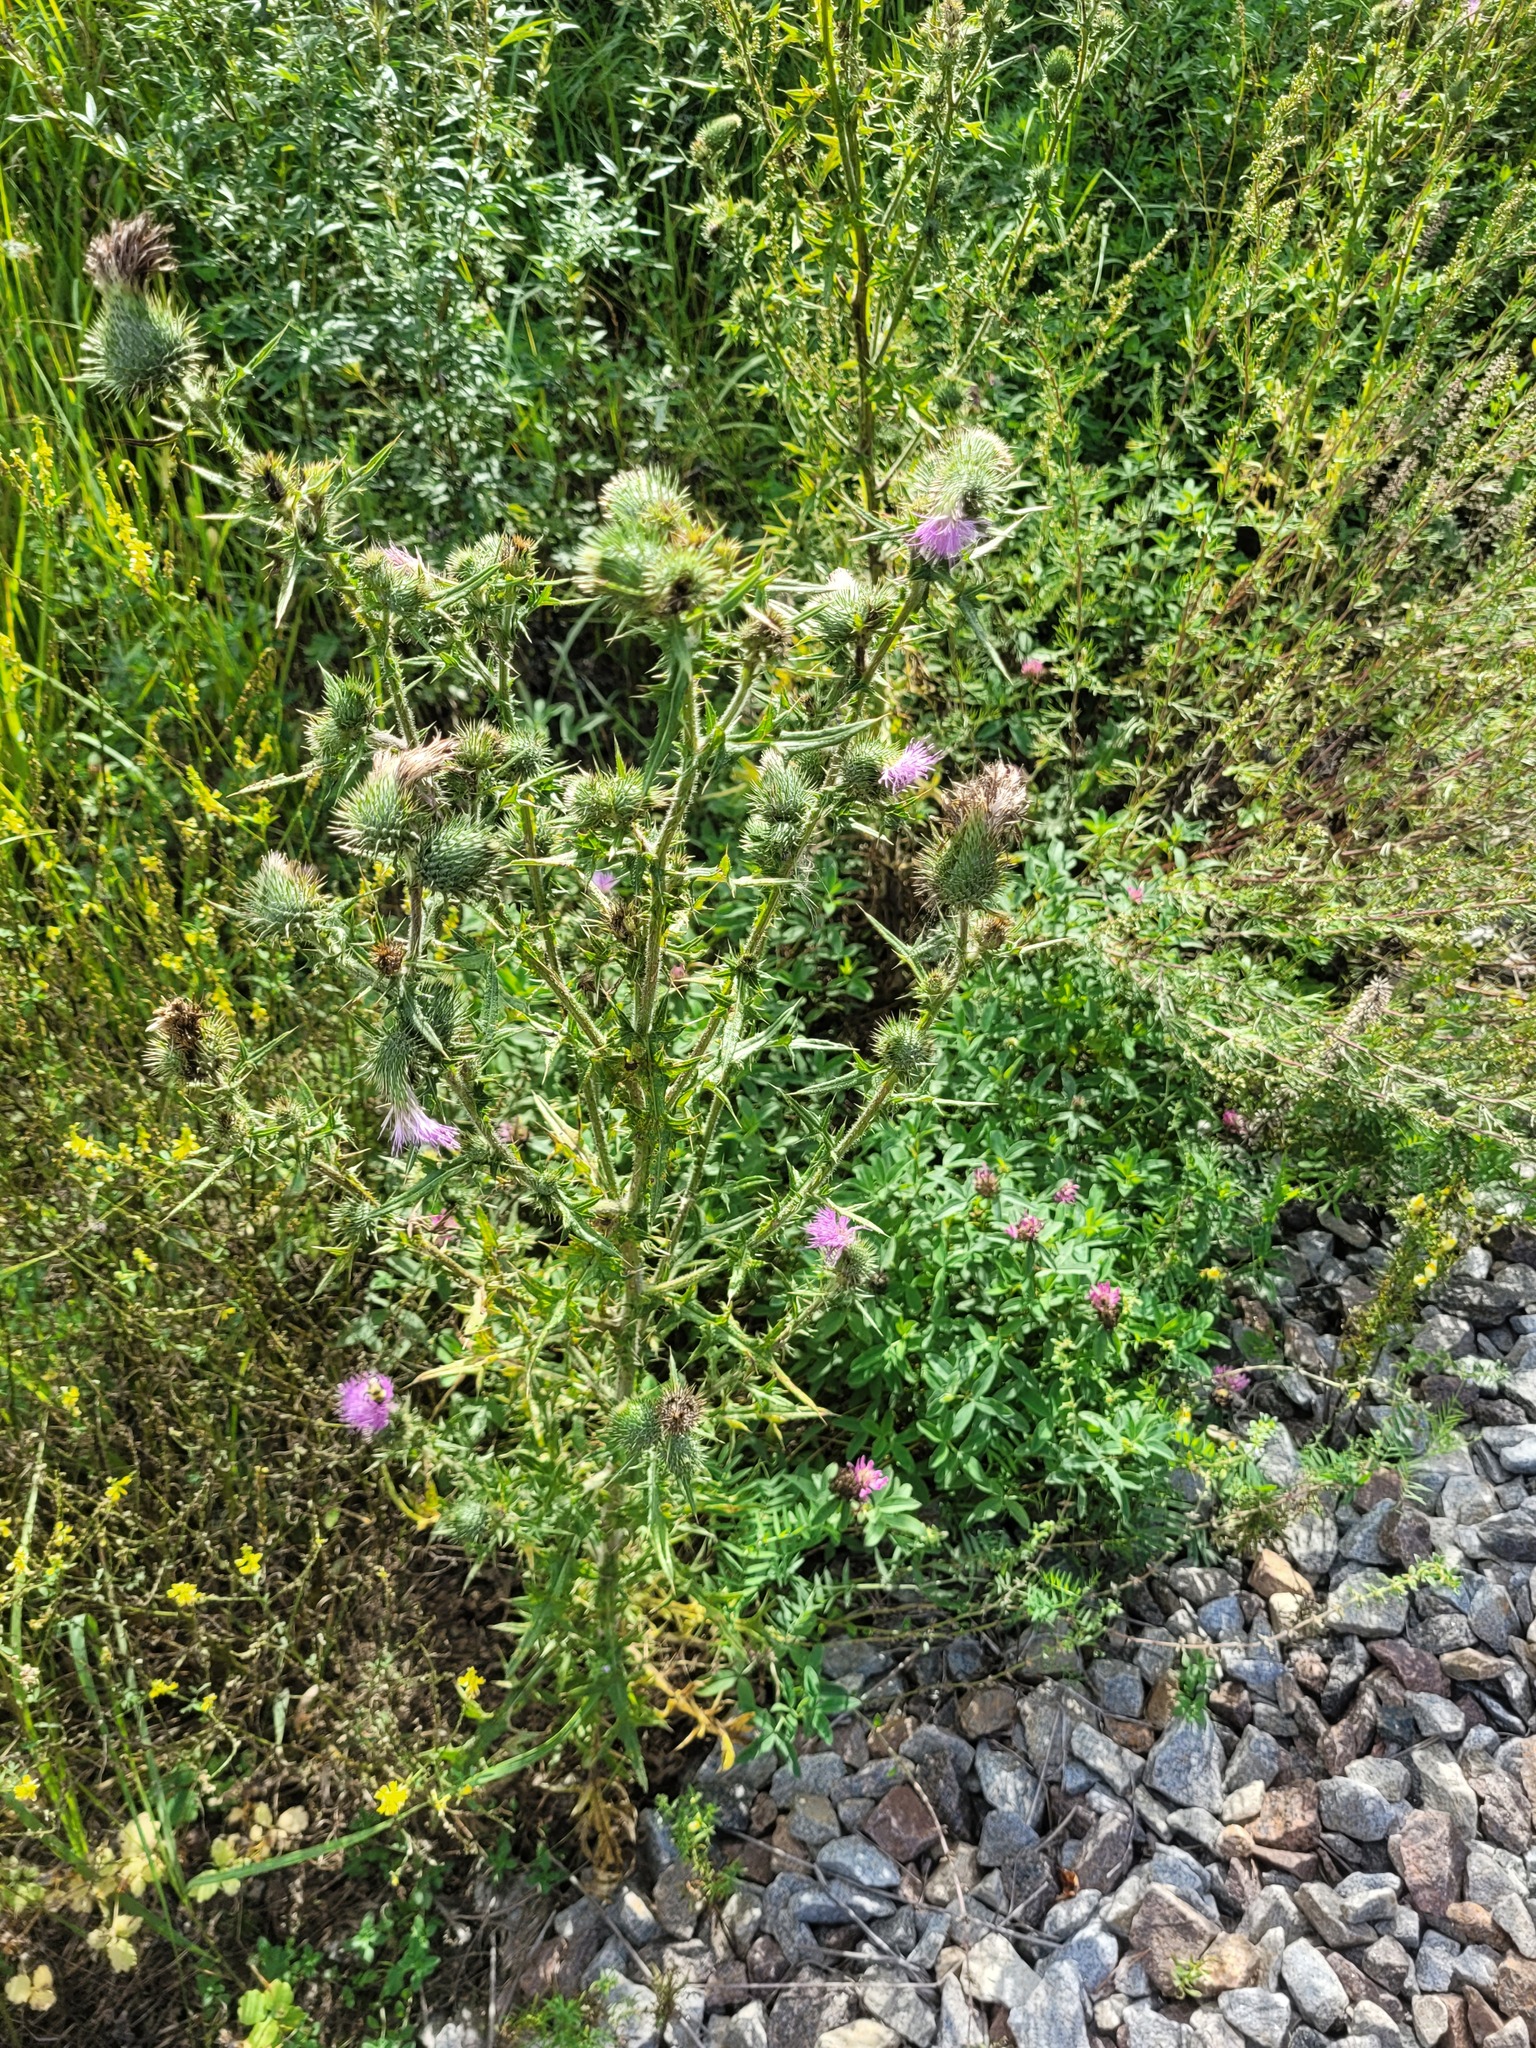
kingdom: Plantae
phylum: Tracheophyta
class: Magnoliopsida
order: Asterales
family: Asteraceae
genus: Cirsium
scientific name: Cirsium vulgare
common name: Bull thistle
